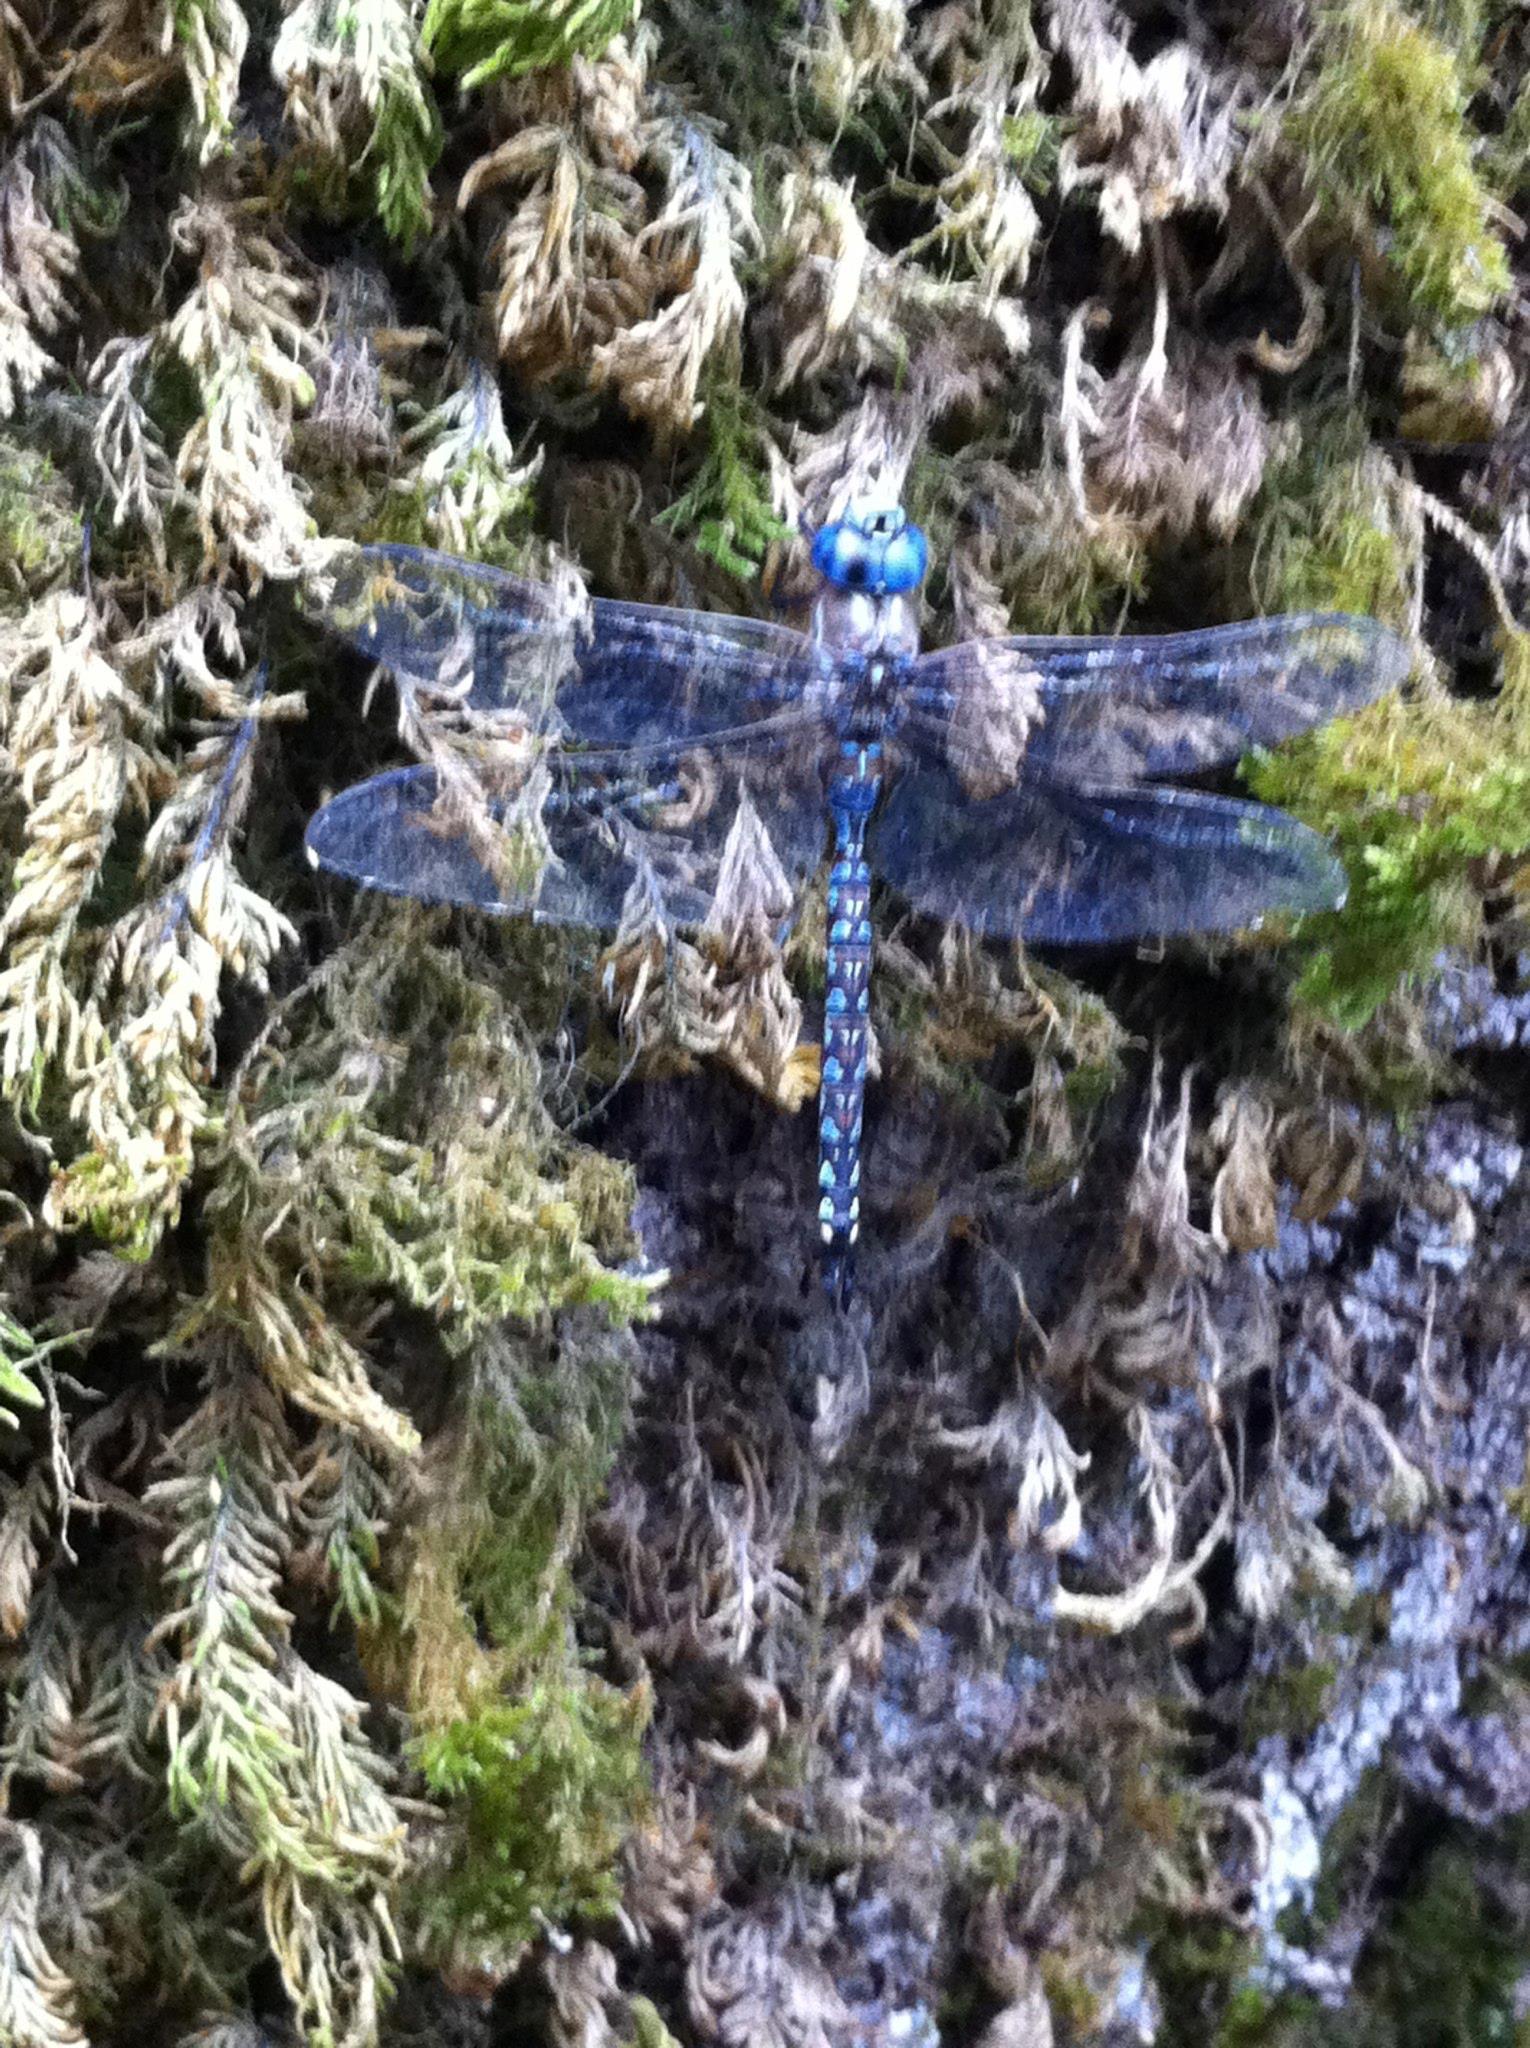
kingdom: Animalia
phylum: Arthropoda
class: Insecta
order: Odonata
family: Aeshnidae
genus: Rhionaeschna
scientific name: Rhionaeschna multicolor
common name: Blue-eyed darner
